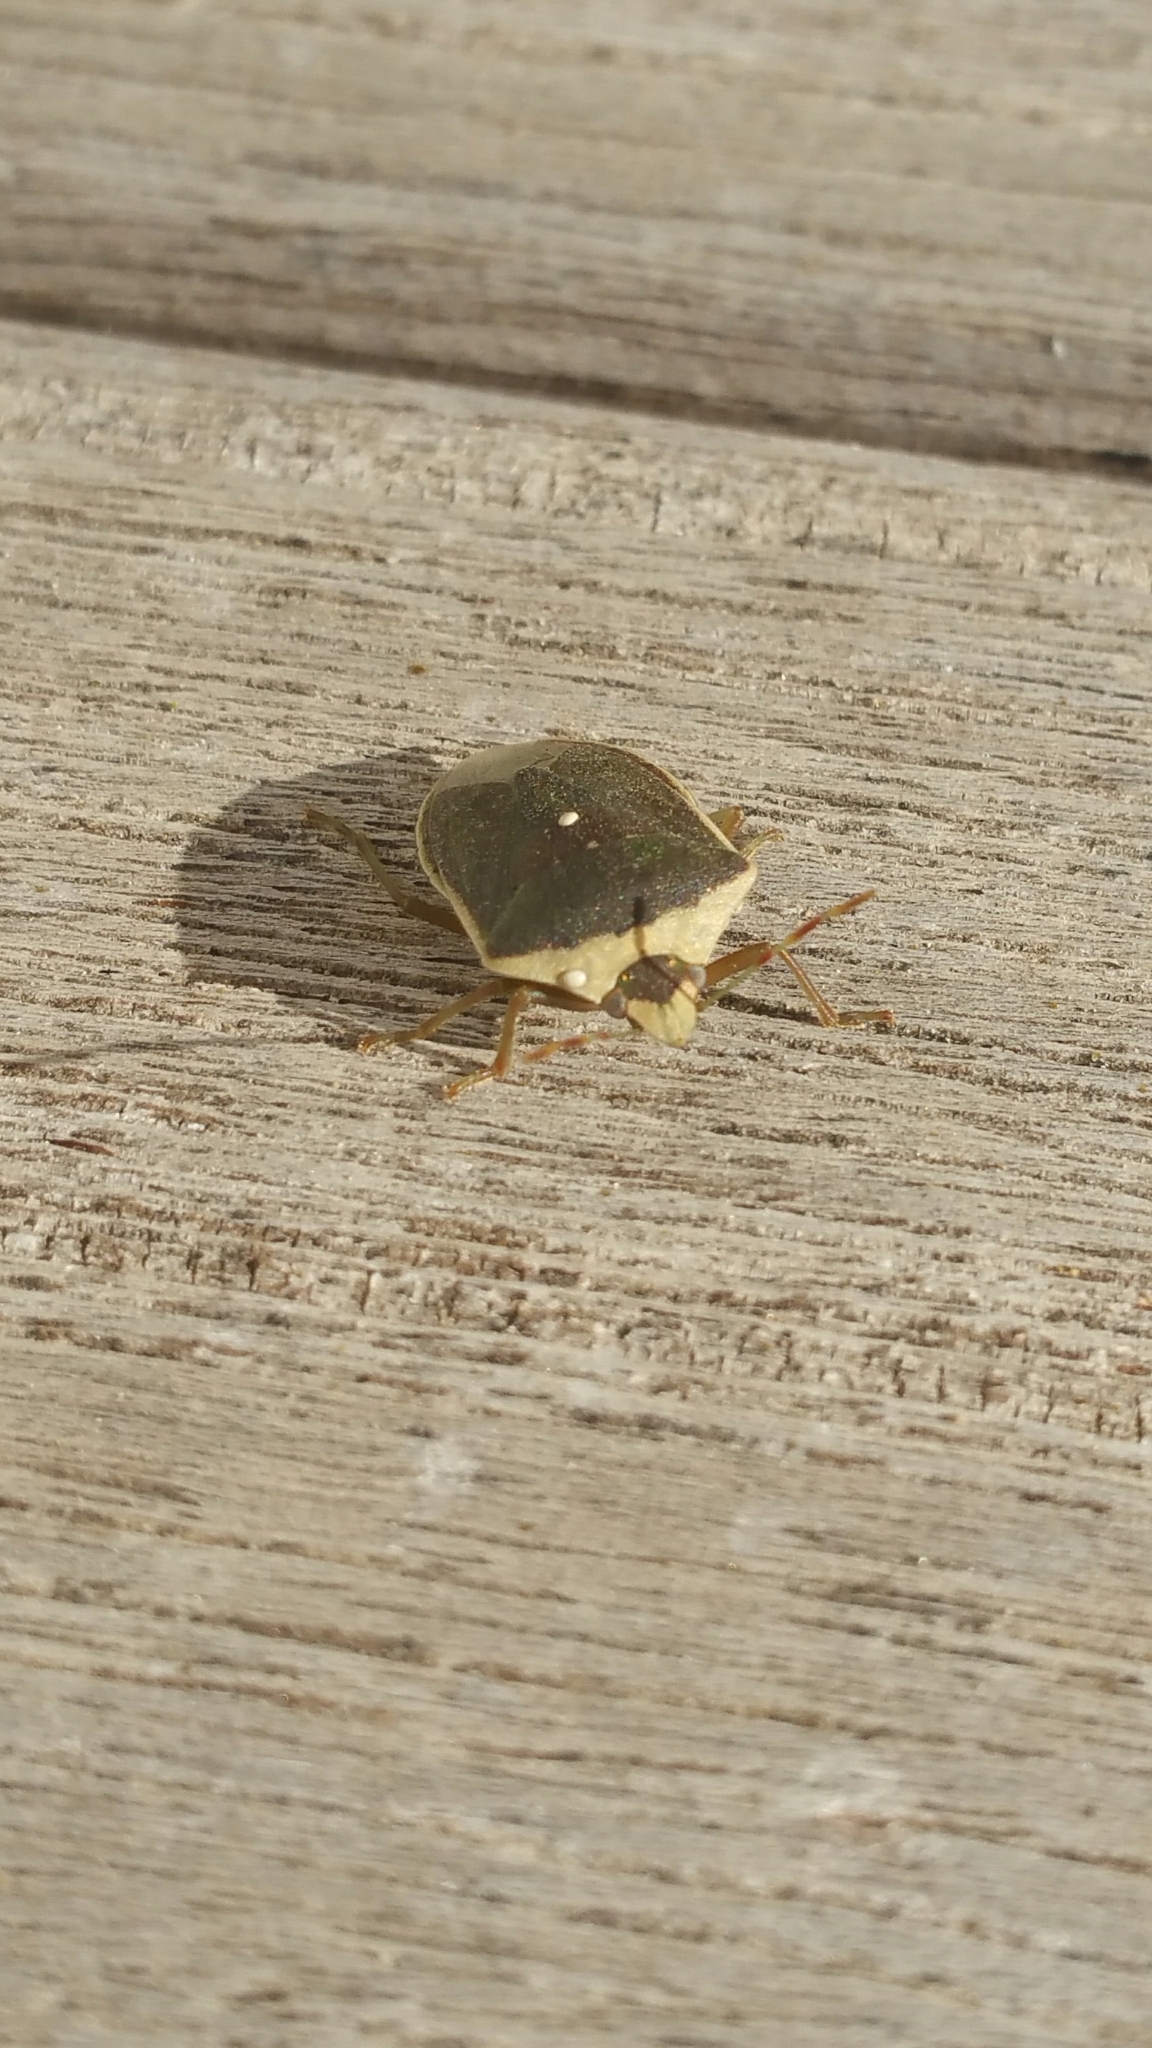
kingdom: Animalia
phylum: Arthropoda
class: Insecta
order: Hemiptera
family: Pentatomidae
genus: Nezara
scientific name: Nezara viridula
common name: Southern green stink bug
